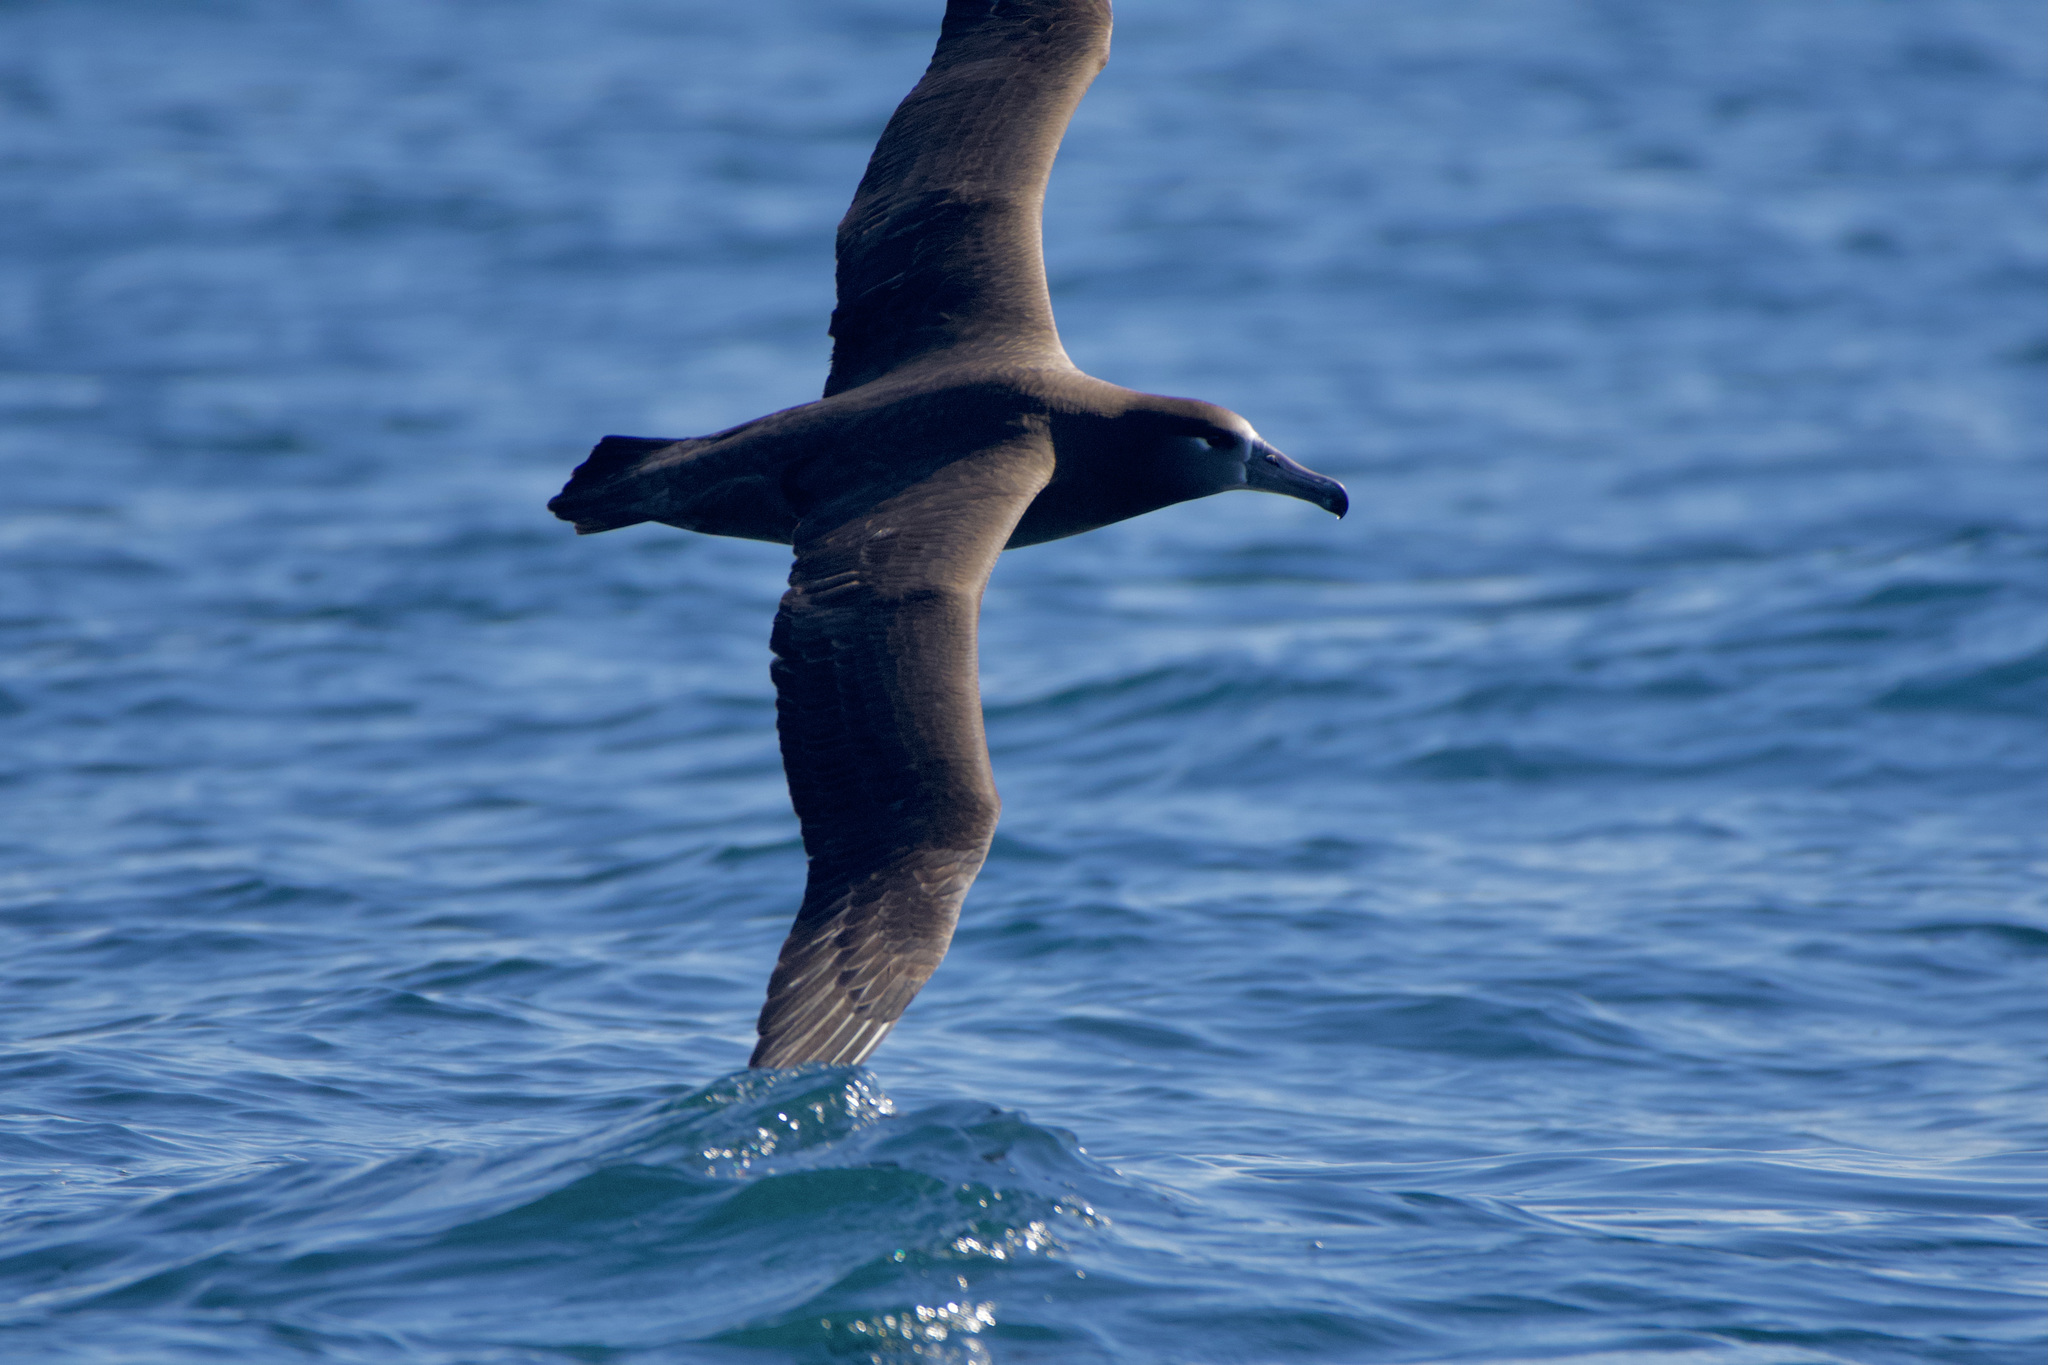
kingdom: Animalia
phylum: Chordata
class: Aves
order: Procellariiformes
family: Diomedeidae
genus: Phoebastria
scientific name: Phoebastria nigripes
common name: Black-footed albatross
